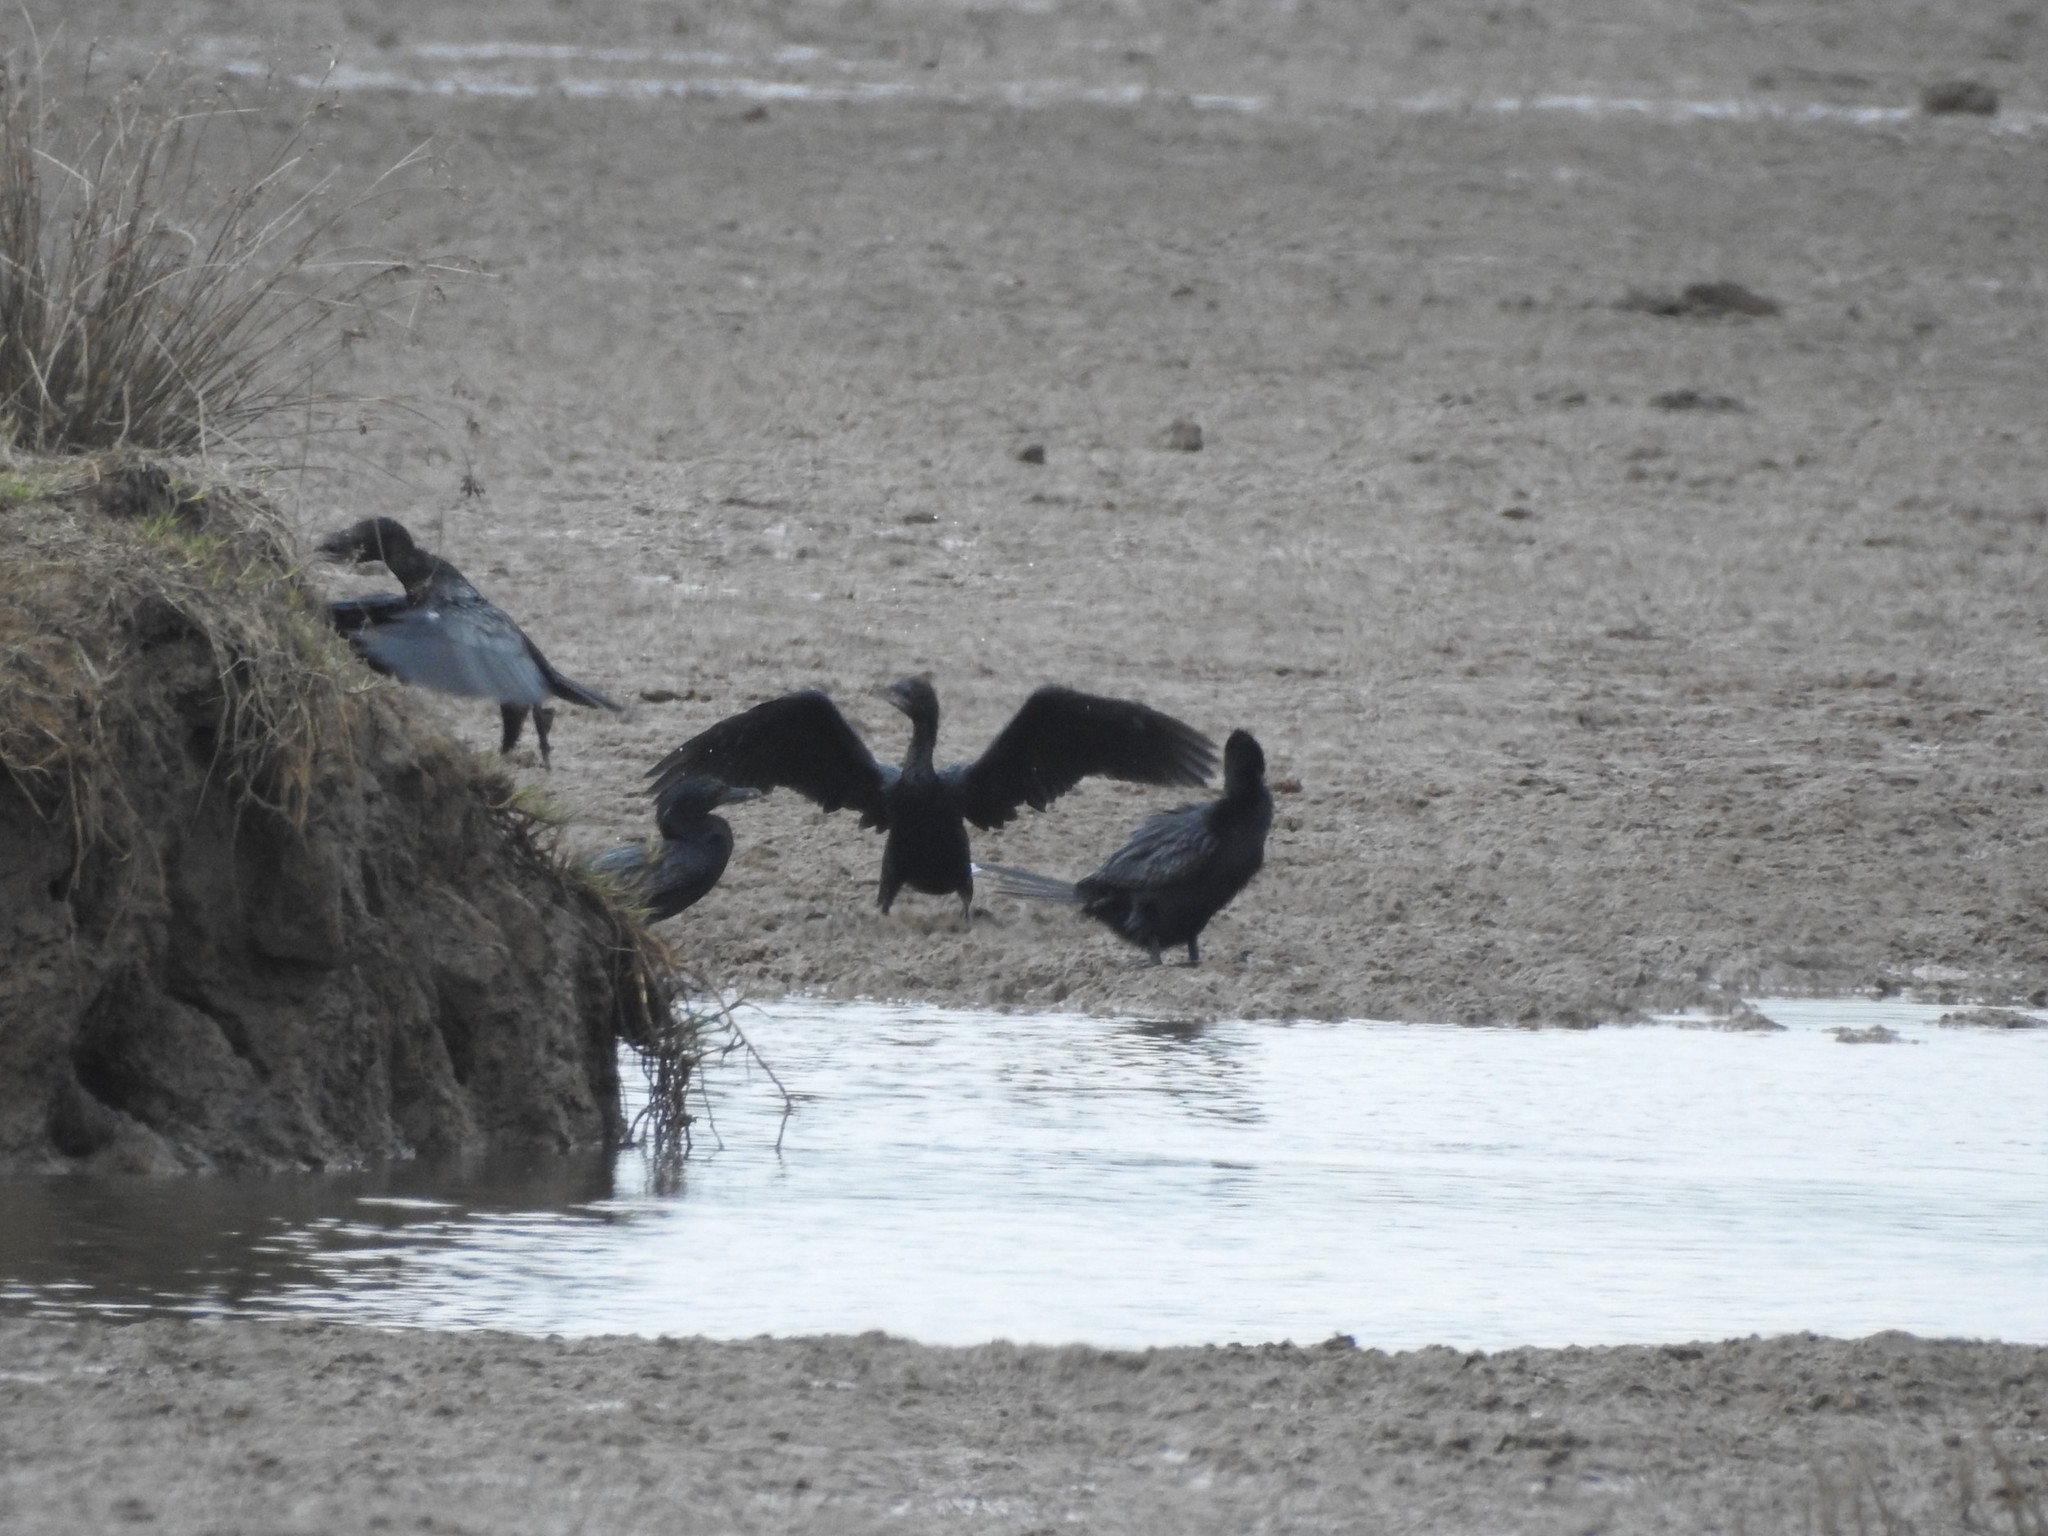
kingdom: Animalia
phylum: Chordata
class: Aves
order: Suliformes
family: Phalacrocoracidae
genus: Microcarbo
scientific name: Microcarbo niger
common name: Little cormorant
